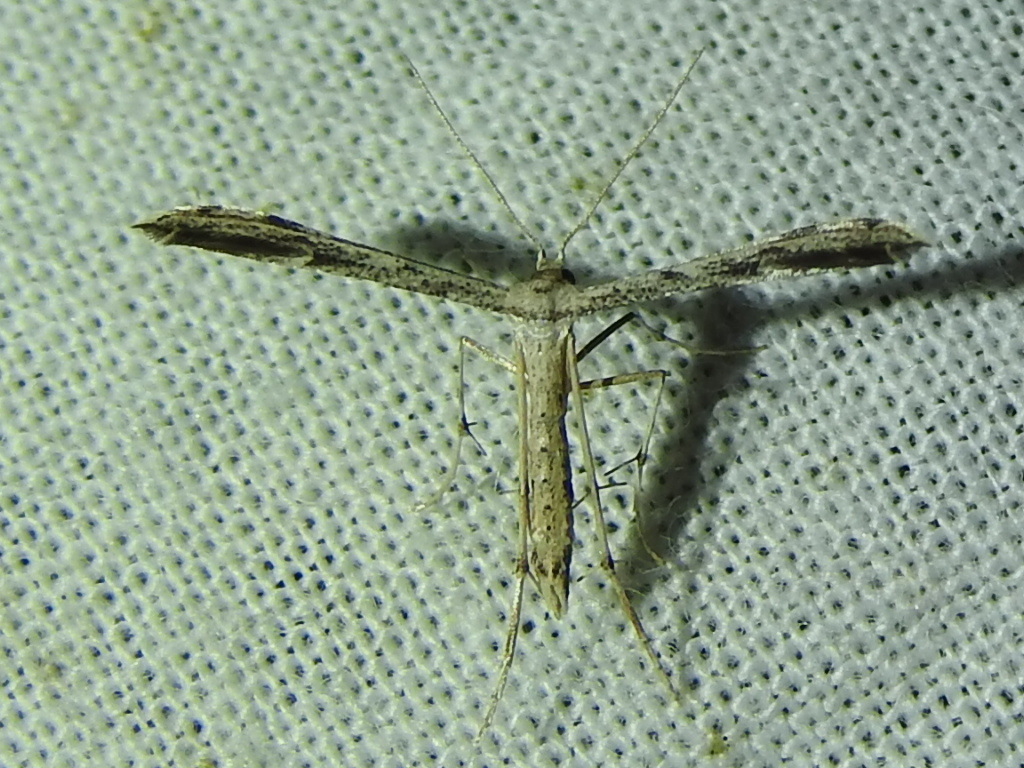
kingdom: Animalia
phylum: Arthropoda
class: Insecta
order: Lepidoptera
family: Pterophoridae
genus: Adaina
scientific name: Adaina ambrosiae
